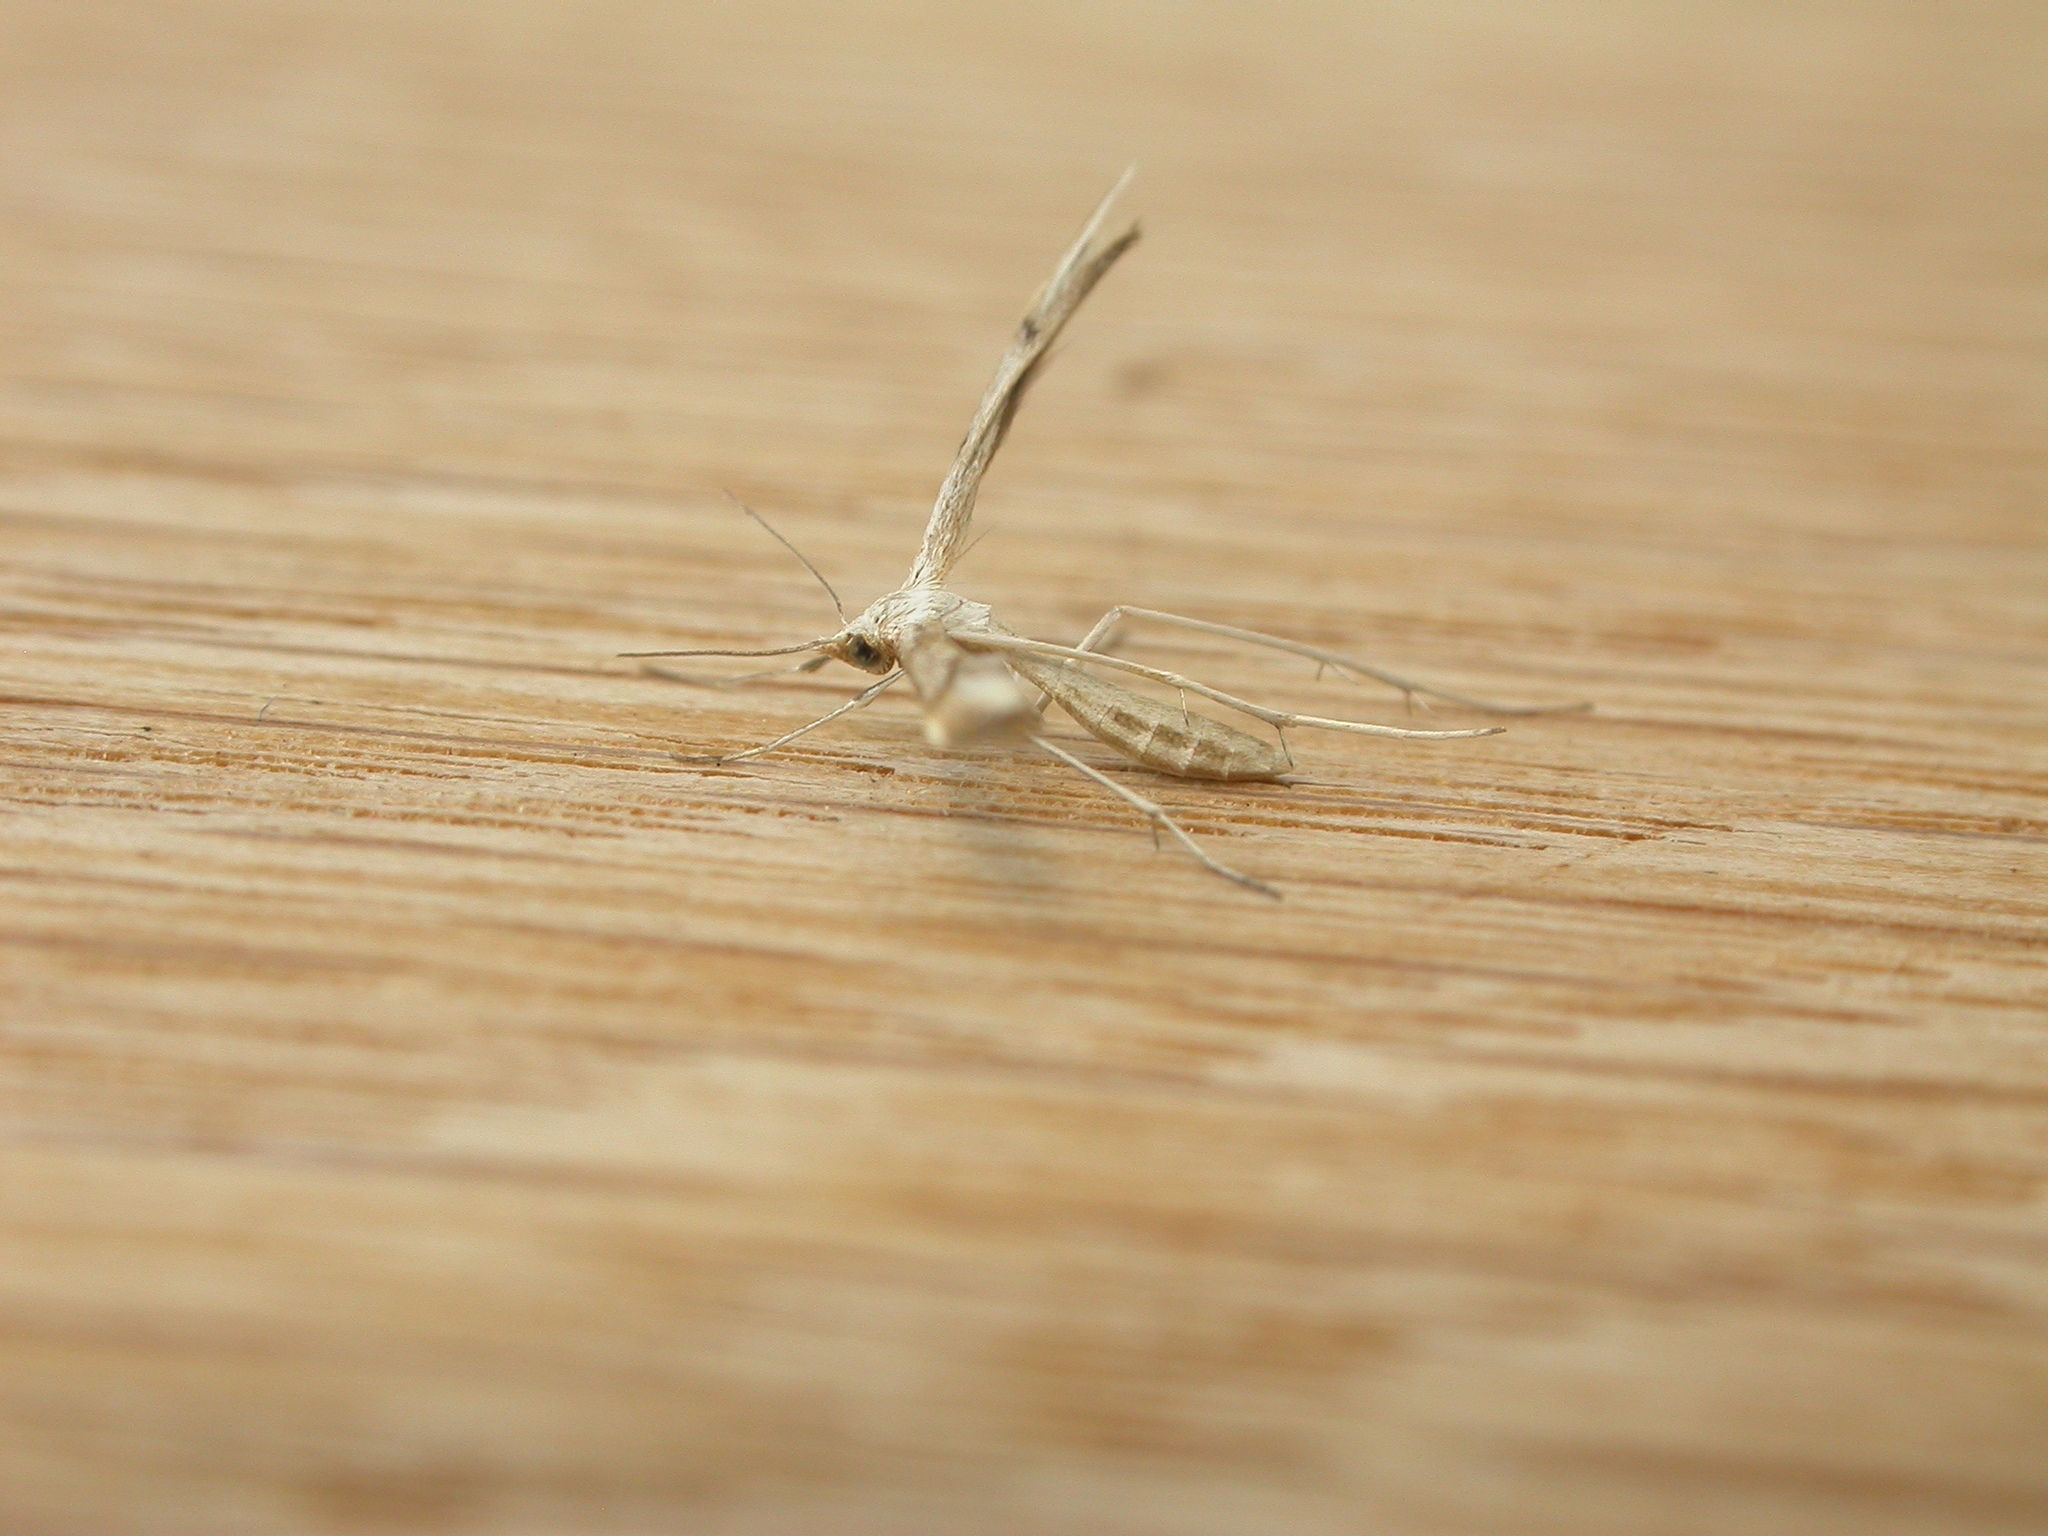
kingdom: Animalia
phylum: Arthropoda
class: Insecta
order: Lepidoptera
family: Pterophoridae
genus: Platyptilia
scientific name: Platyptilia celidotus
